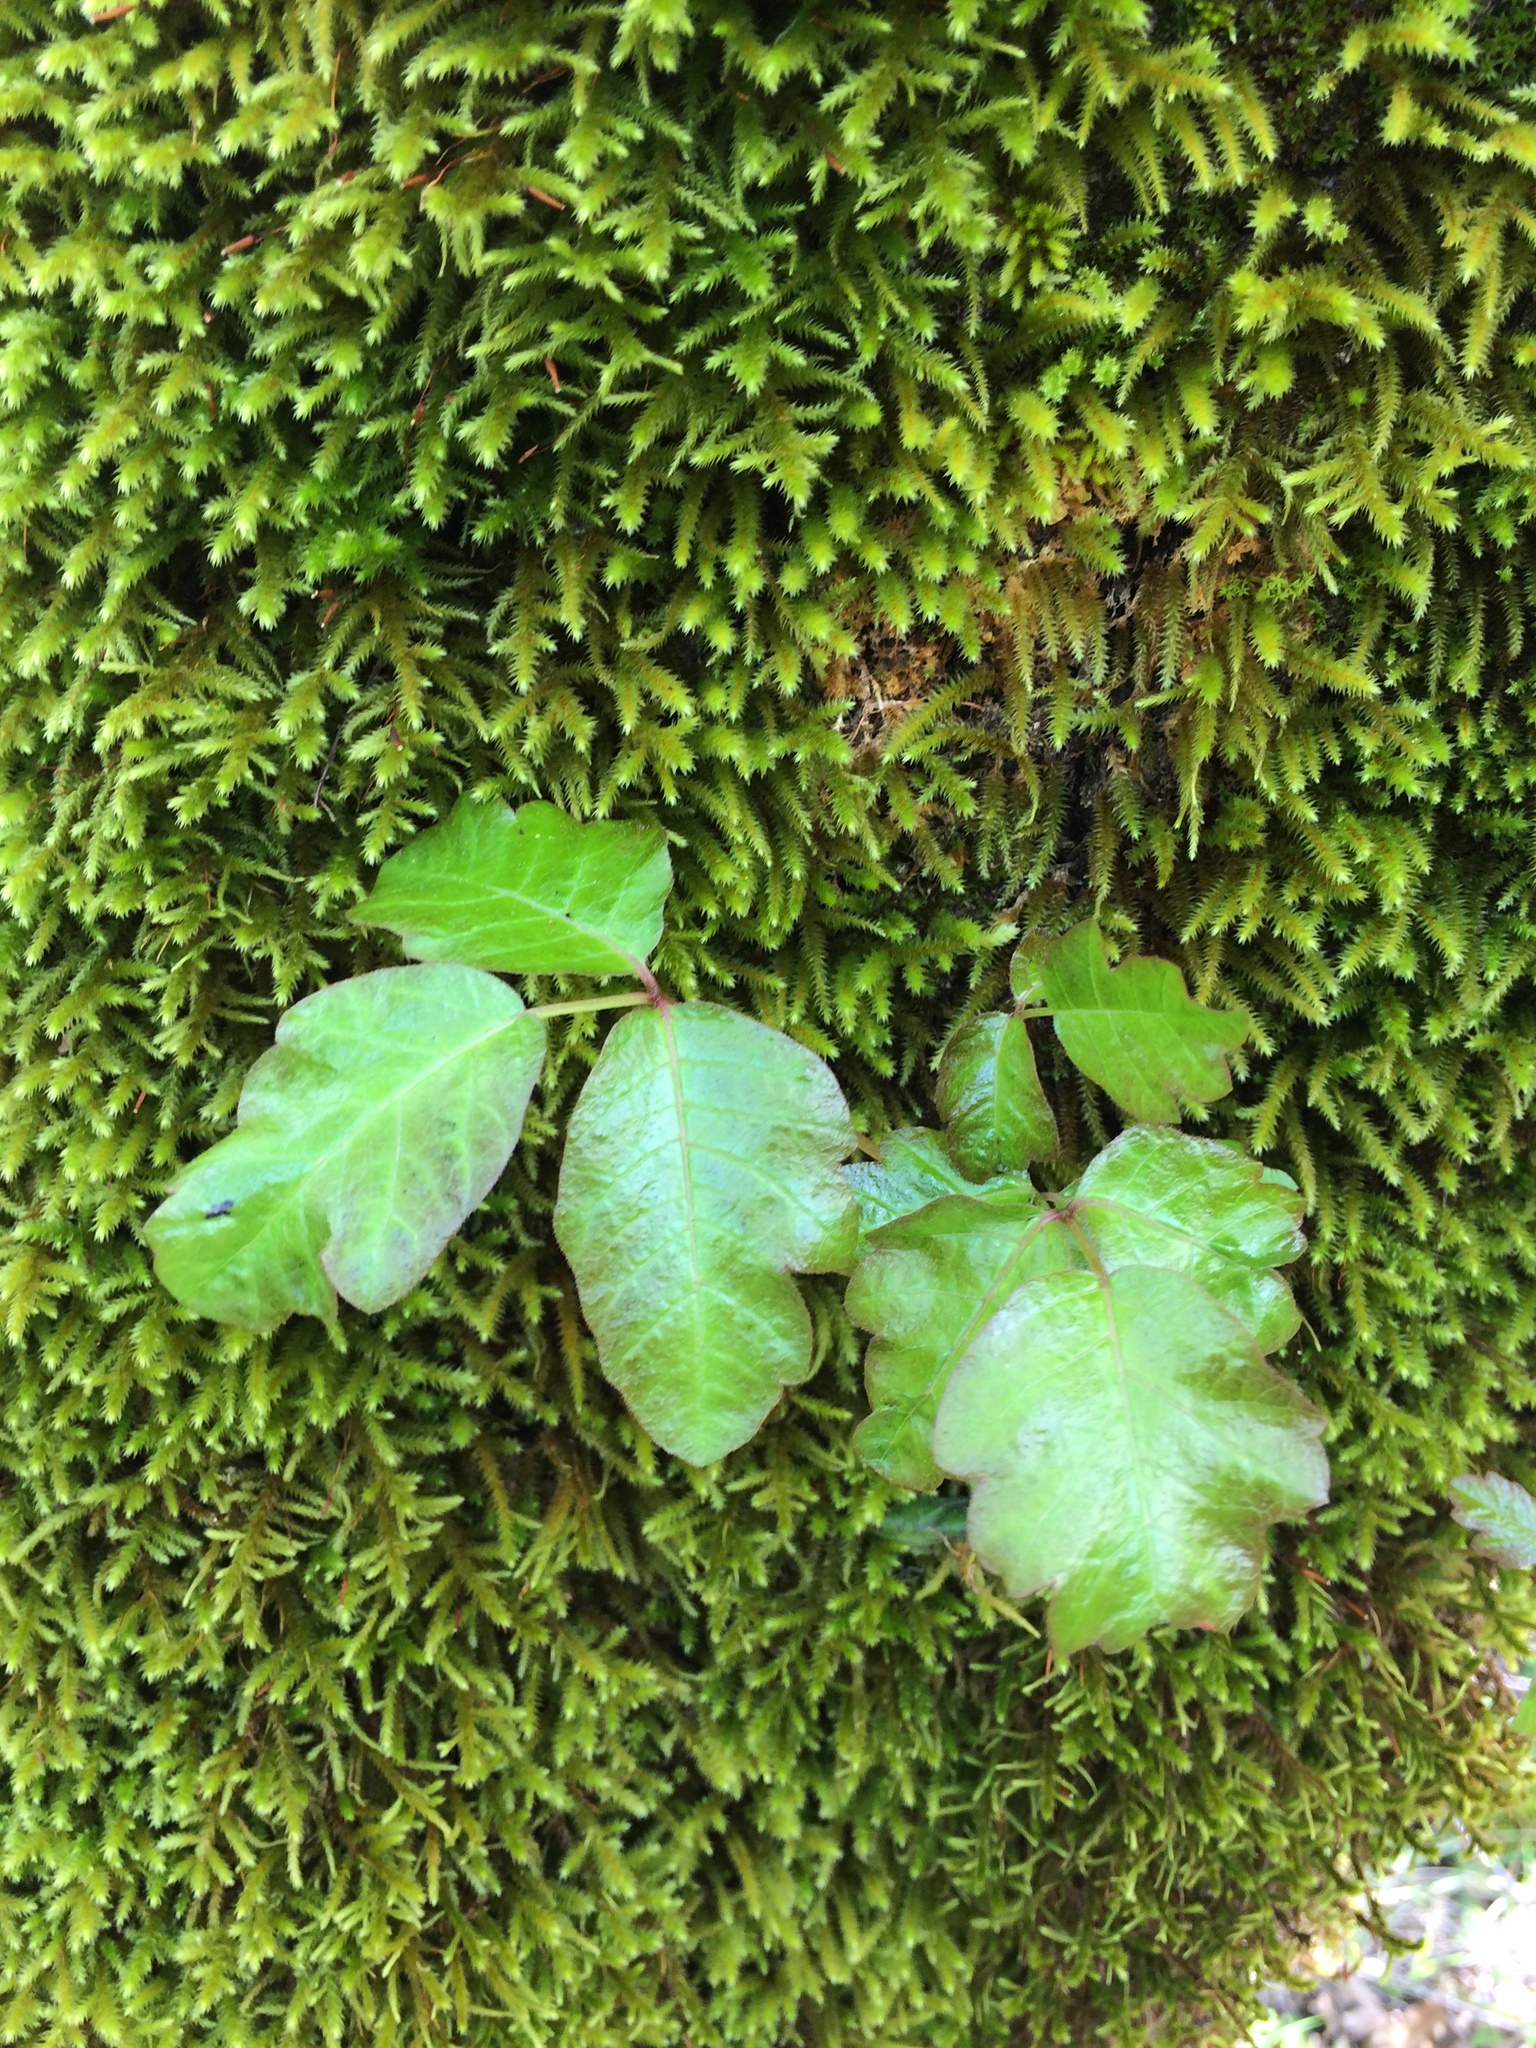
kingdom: Plantae
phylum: Tracheophyta
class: Magnoliopsida
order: Sapindales
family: Anacardiaceae
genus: Toxicodendron
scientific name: Toxicodendron diversilobum
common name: Pacific poison-oak
